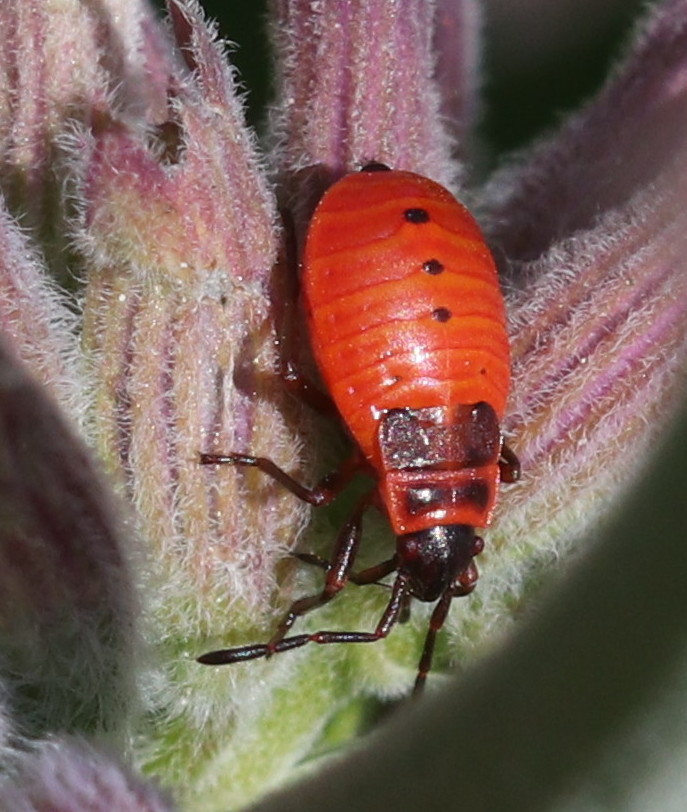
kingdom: Animalia
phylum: Arthropoda
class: Insecta
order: Hemiptera
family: Pyrrhocoridae
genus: Pyrrhocoris
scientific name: Pyrrhocoris apterus
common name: Firebug
